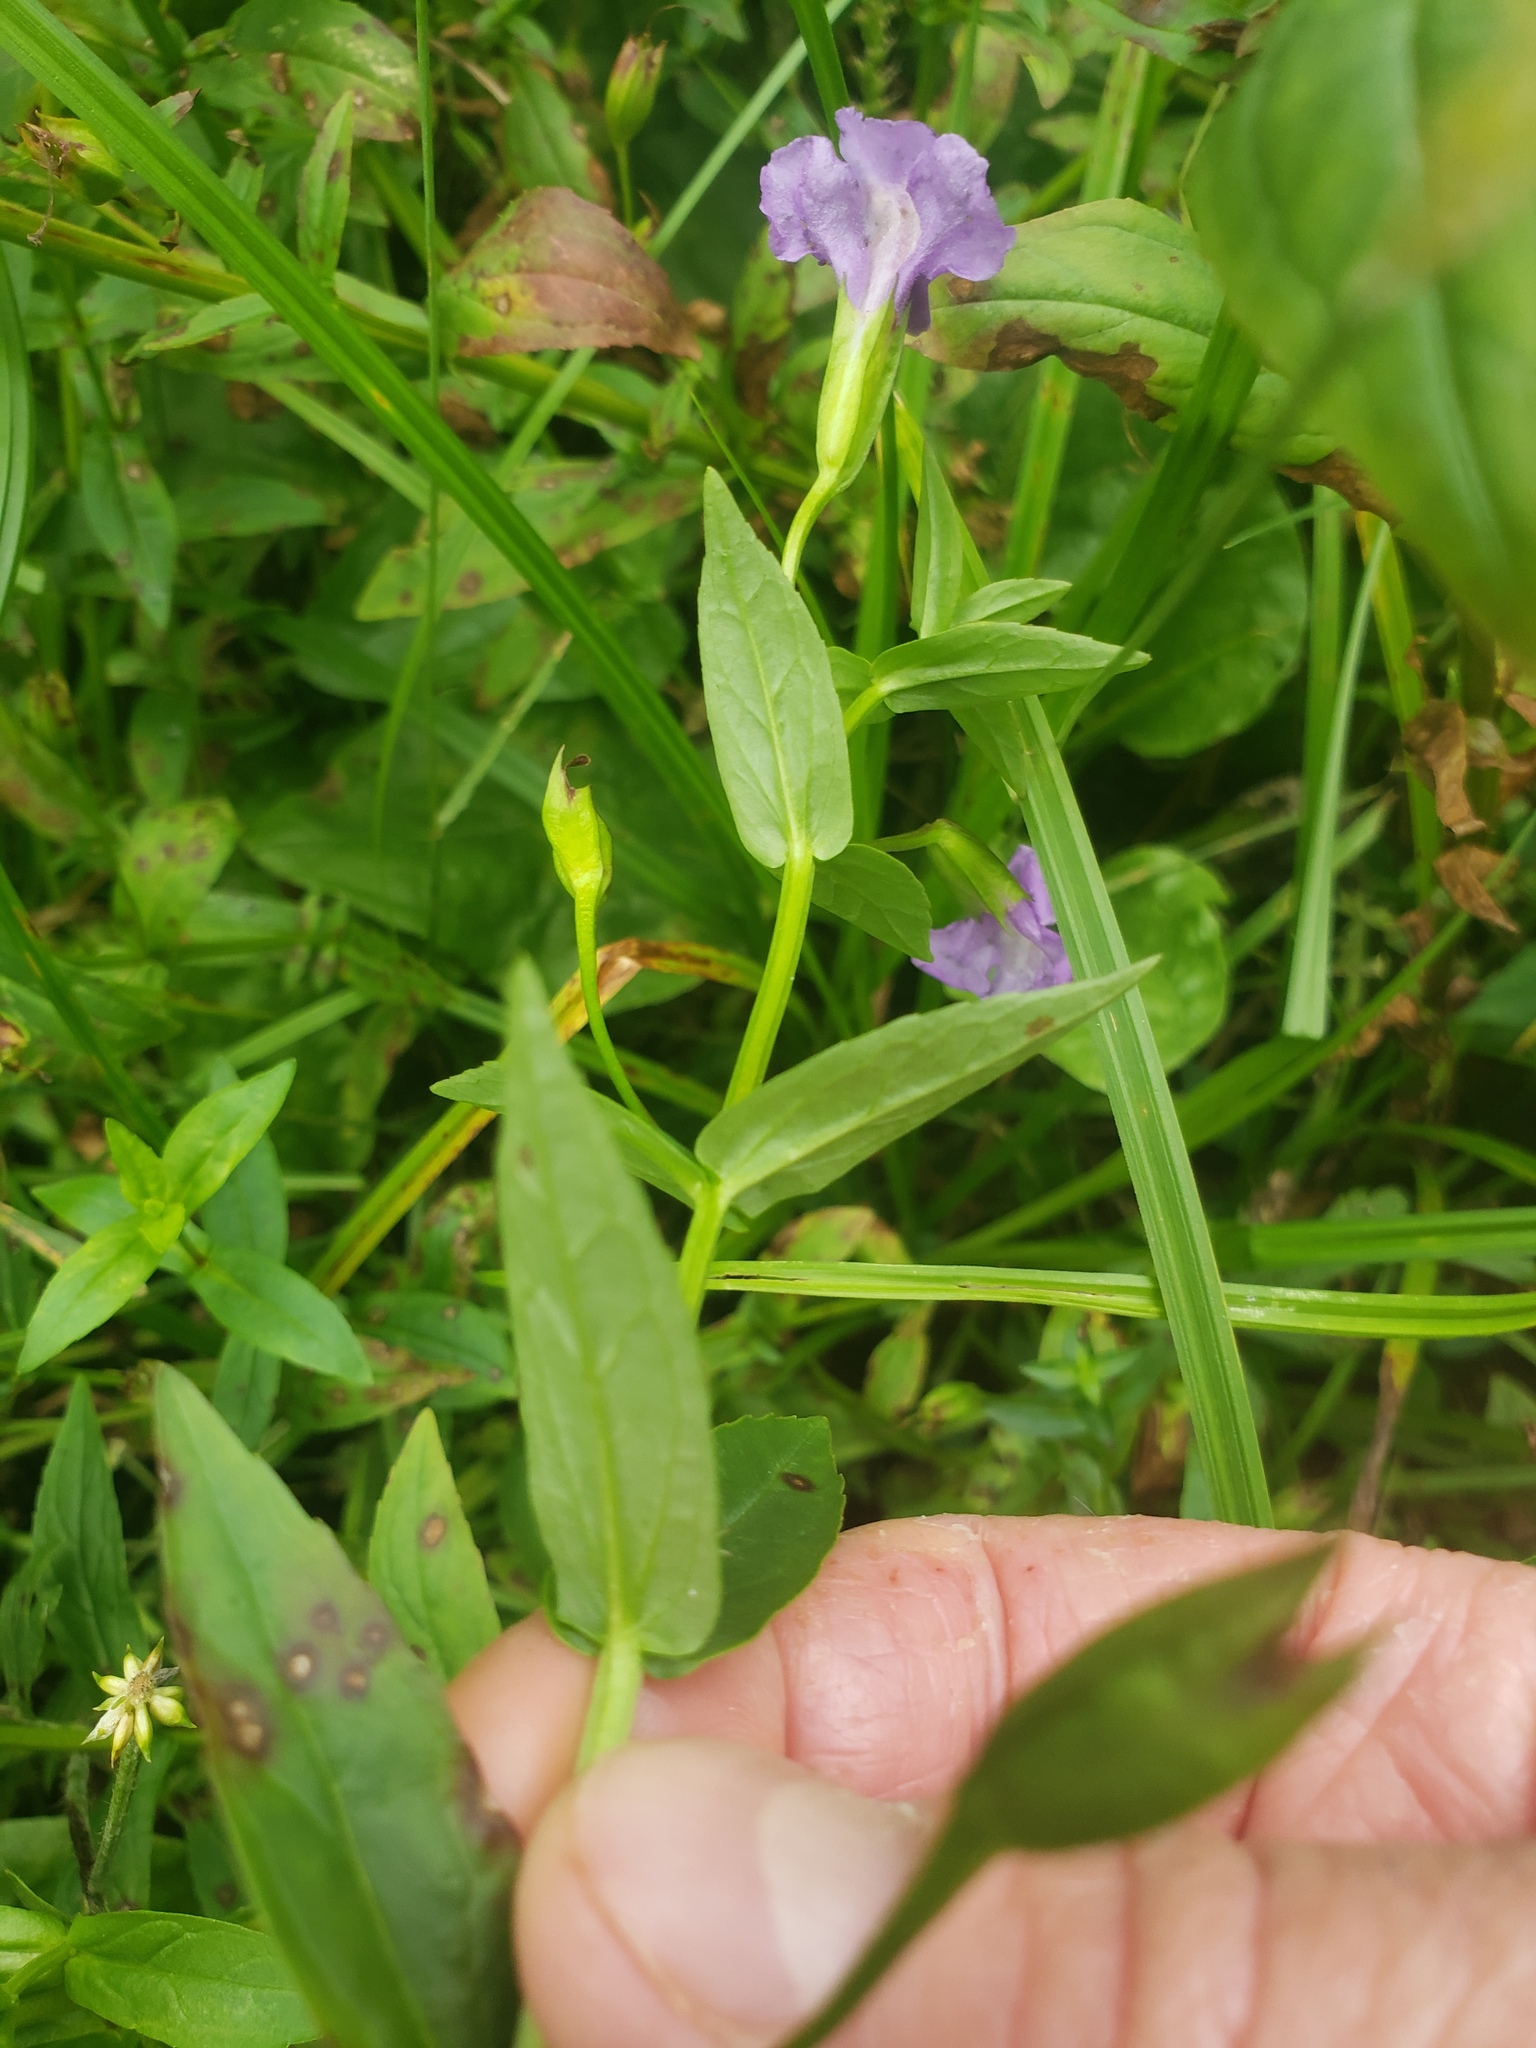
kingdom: Plantae
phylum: Tracheophyta
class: Magnoliopsida
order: Lamiales
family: Phrymaceae
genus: Mimulus
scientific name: Mimulus ringens
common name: Allegheny monkeyflower
